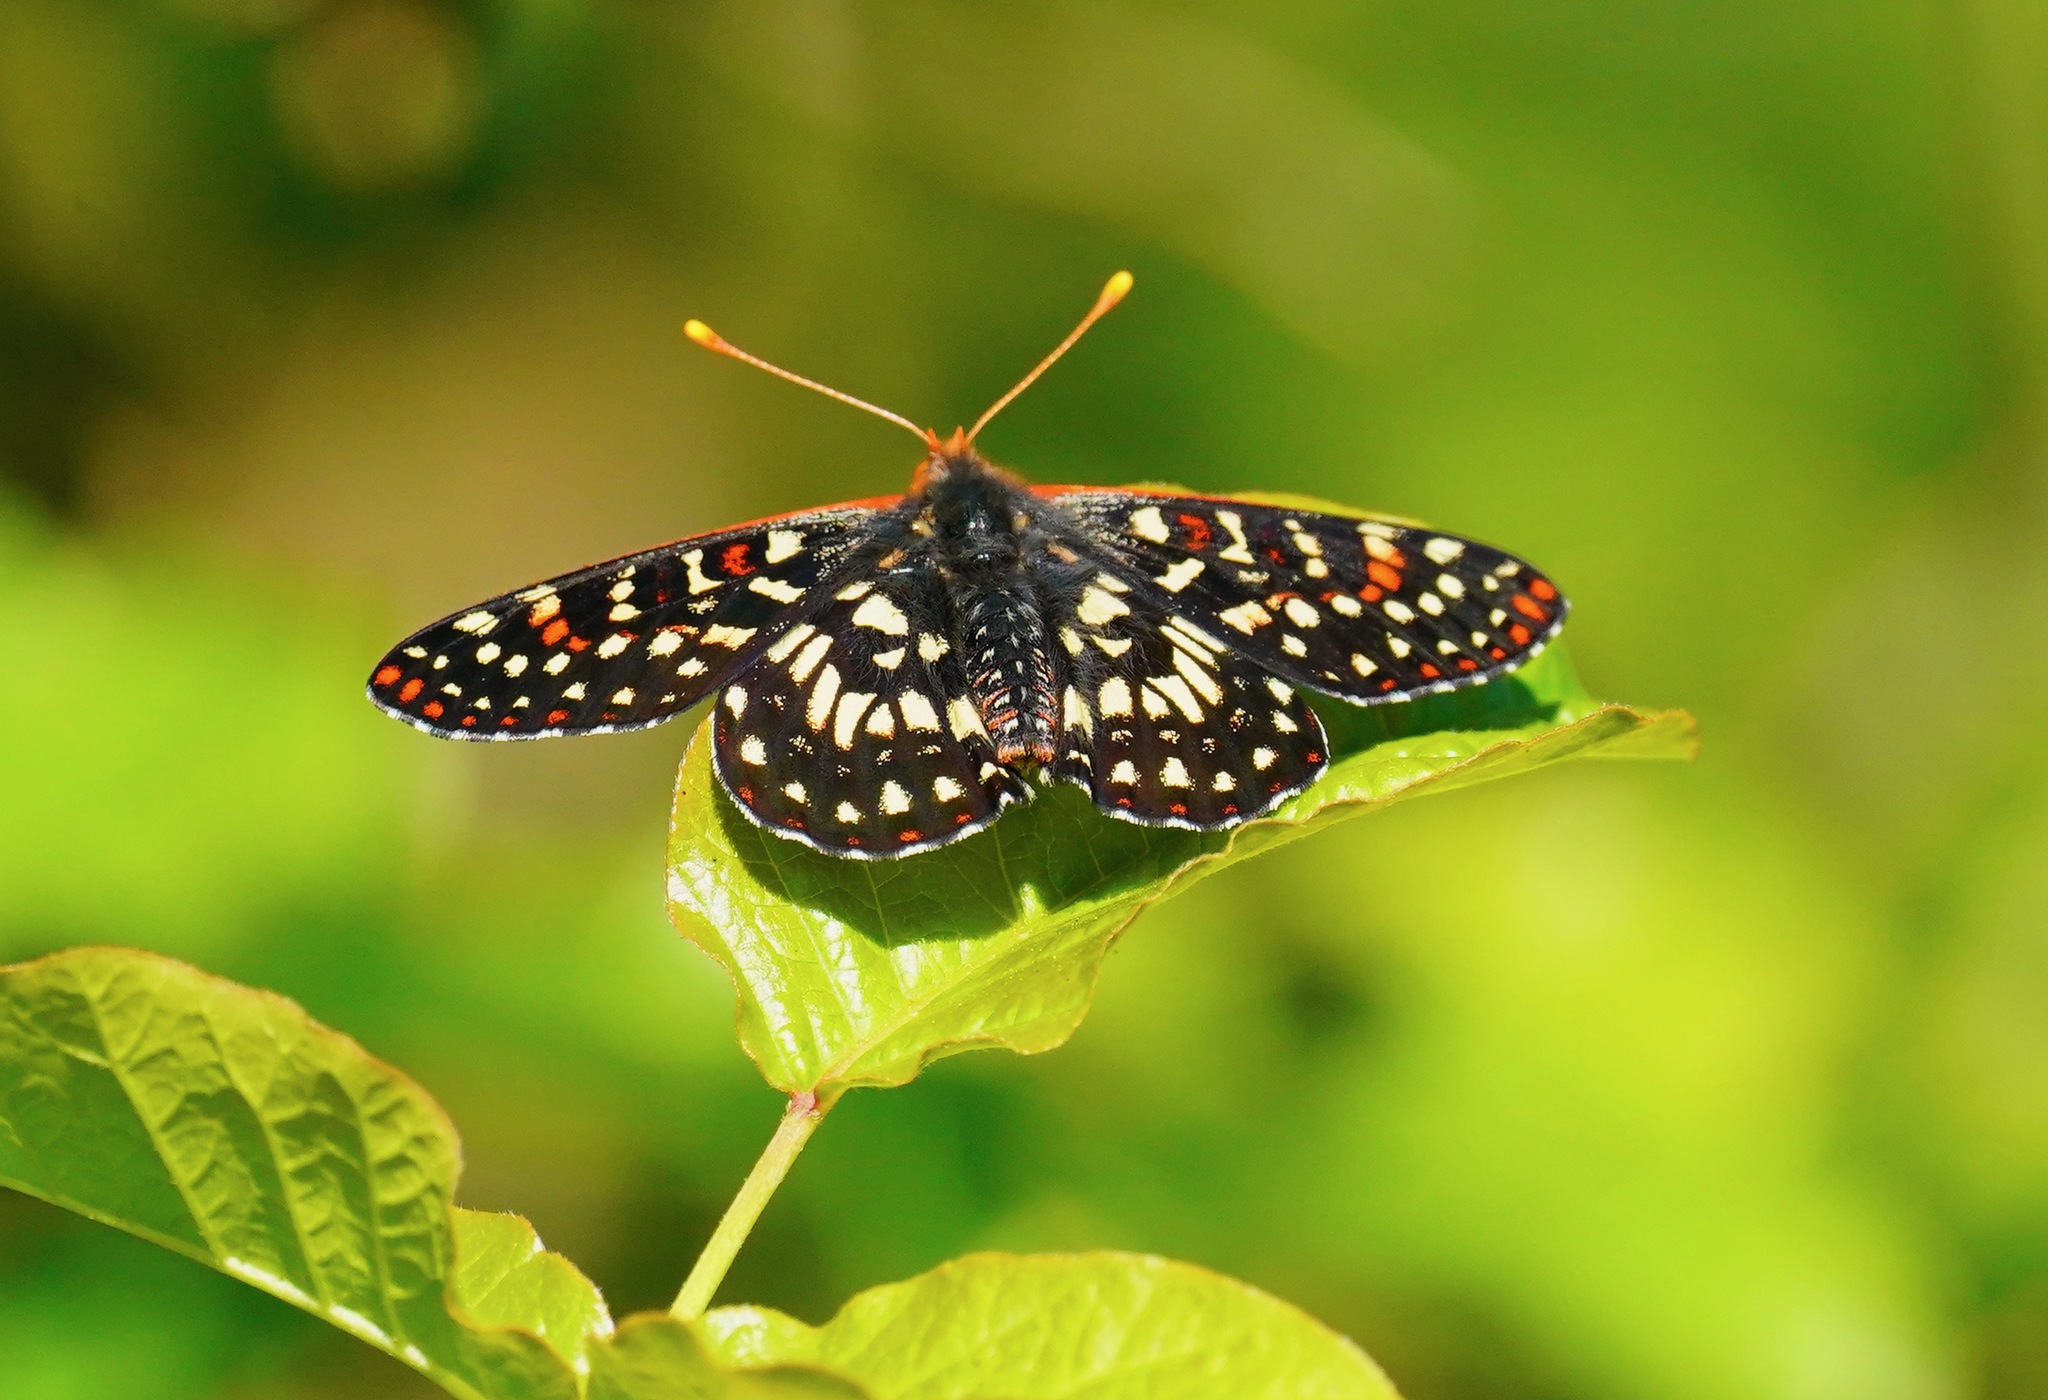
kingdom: Animalia
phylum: Arthropoda
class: Insecta
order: Lepidoptera
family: Nymphalidae
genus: Occidryas
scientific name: Occidryas chalcedona
